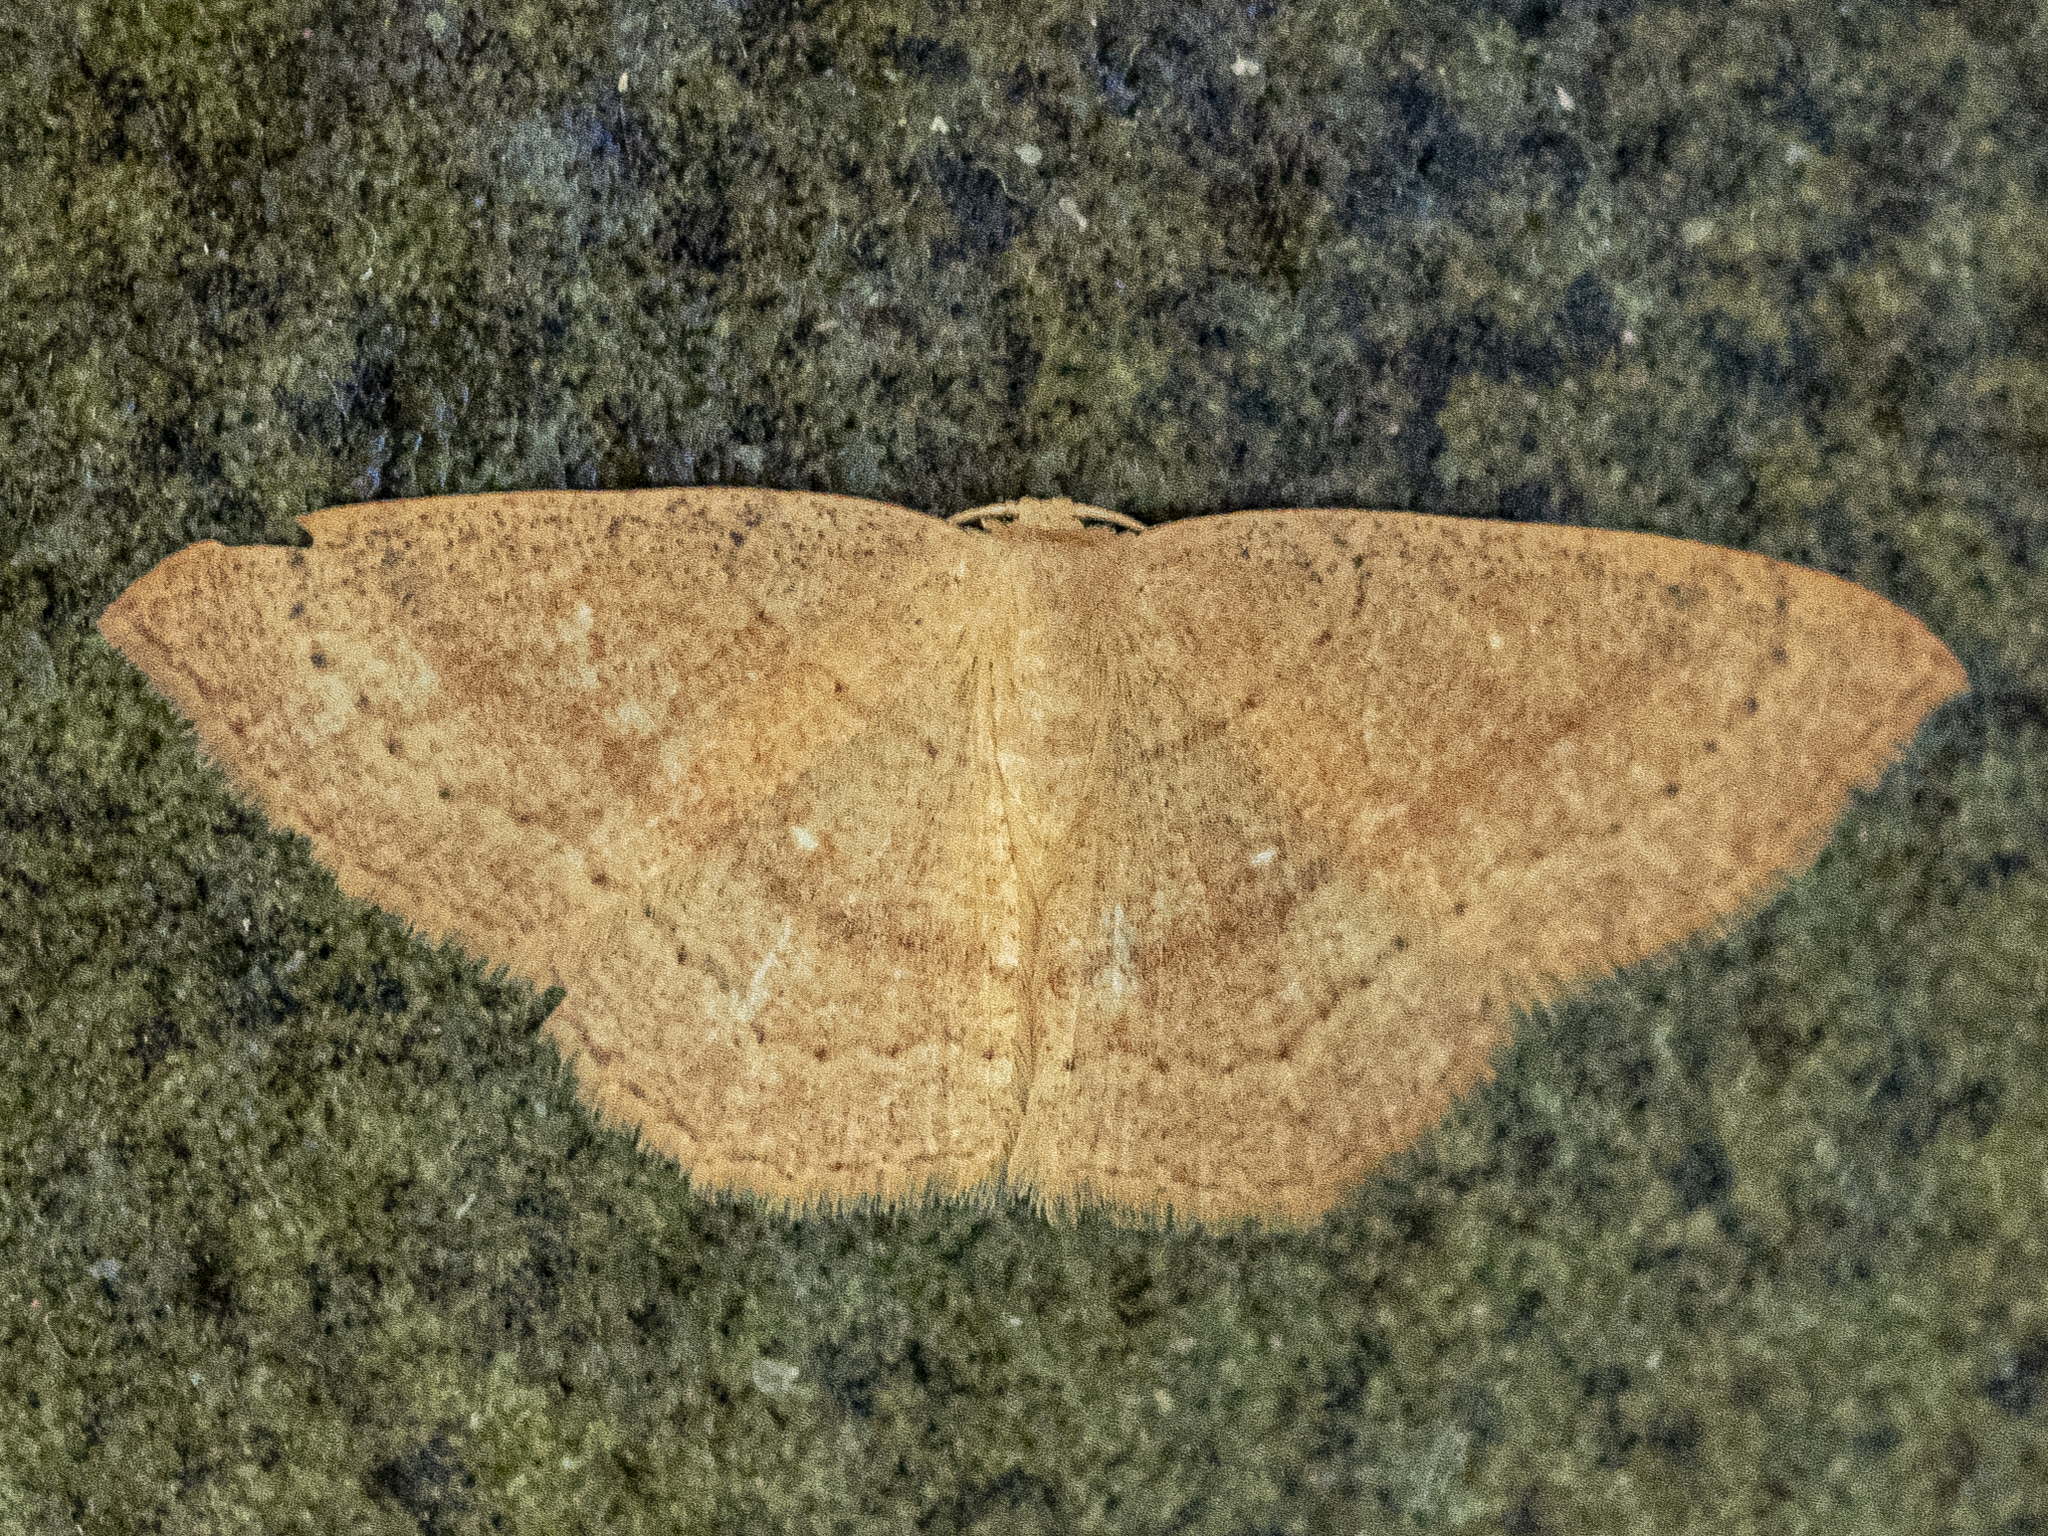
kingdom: Animalia
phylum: Arthropoda
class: Insecta
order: Lepidoptera
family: Geometridae
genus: Cyclophora
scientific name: Cyclophora linearia
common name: Clay triple-lines
